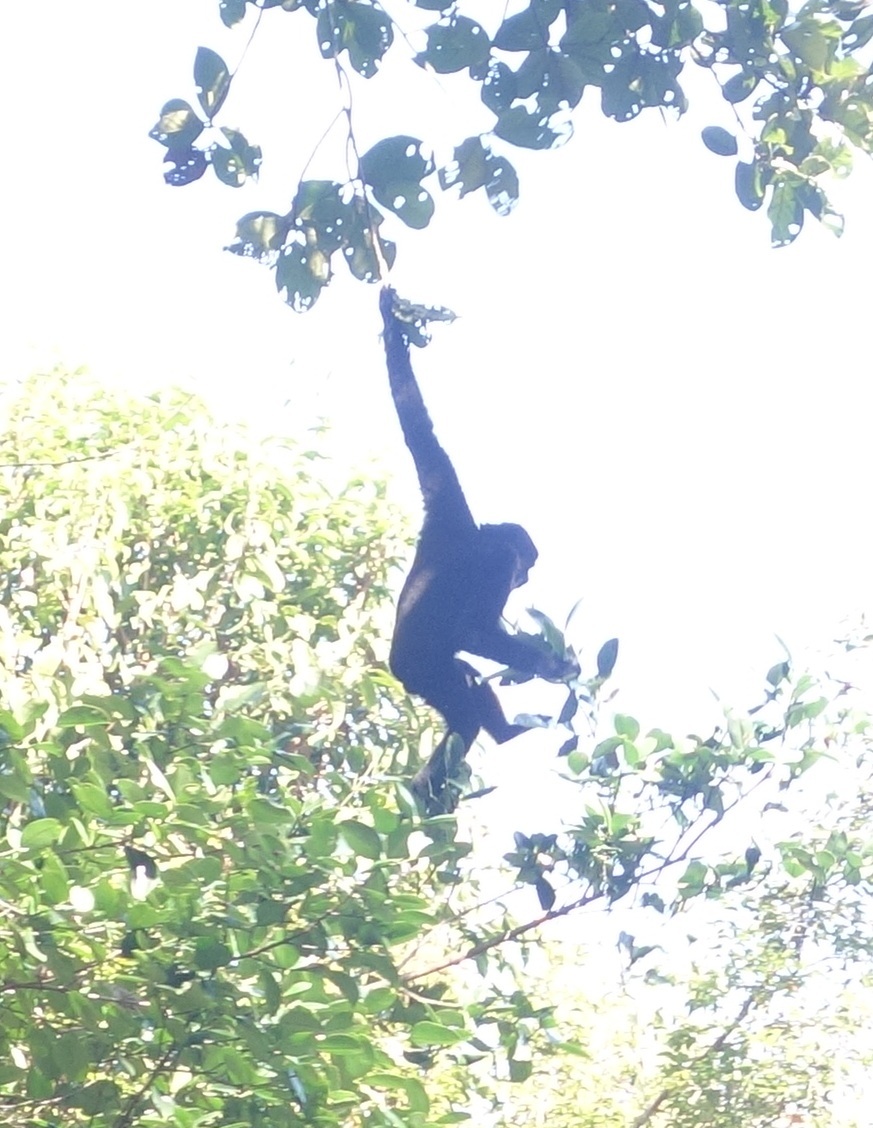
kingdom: Animalia
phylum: Chordata
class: Mammalia
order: Primates
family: Hylobatidae
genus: Hoolock
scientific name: Hoolock hoolock
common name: Western hoolock gibbon
